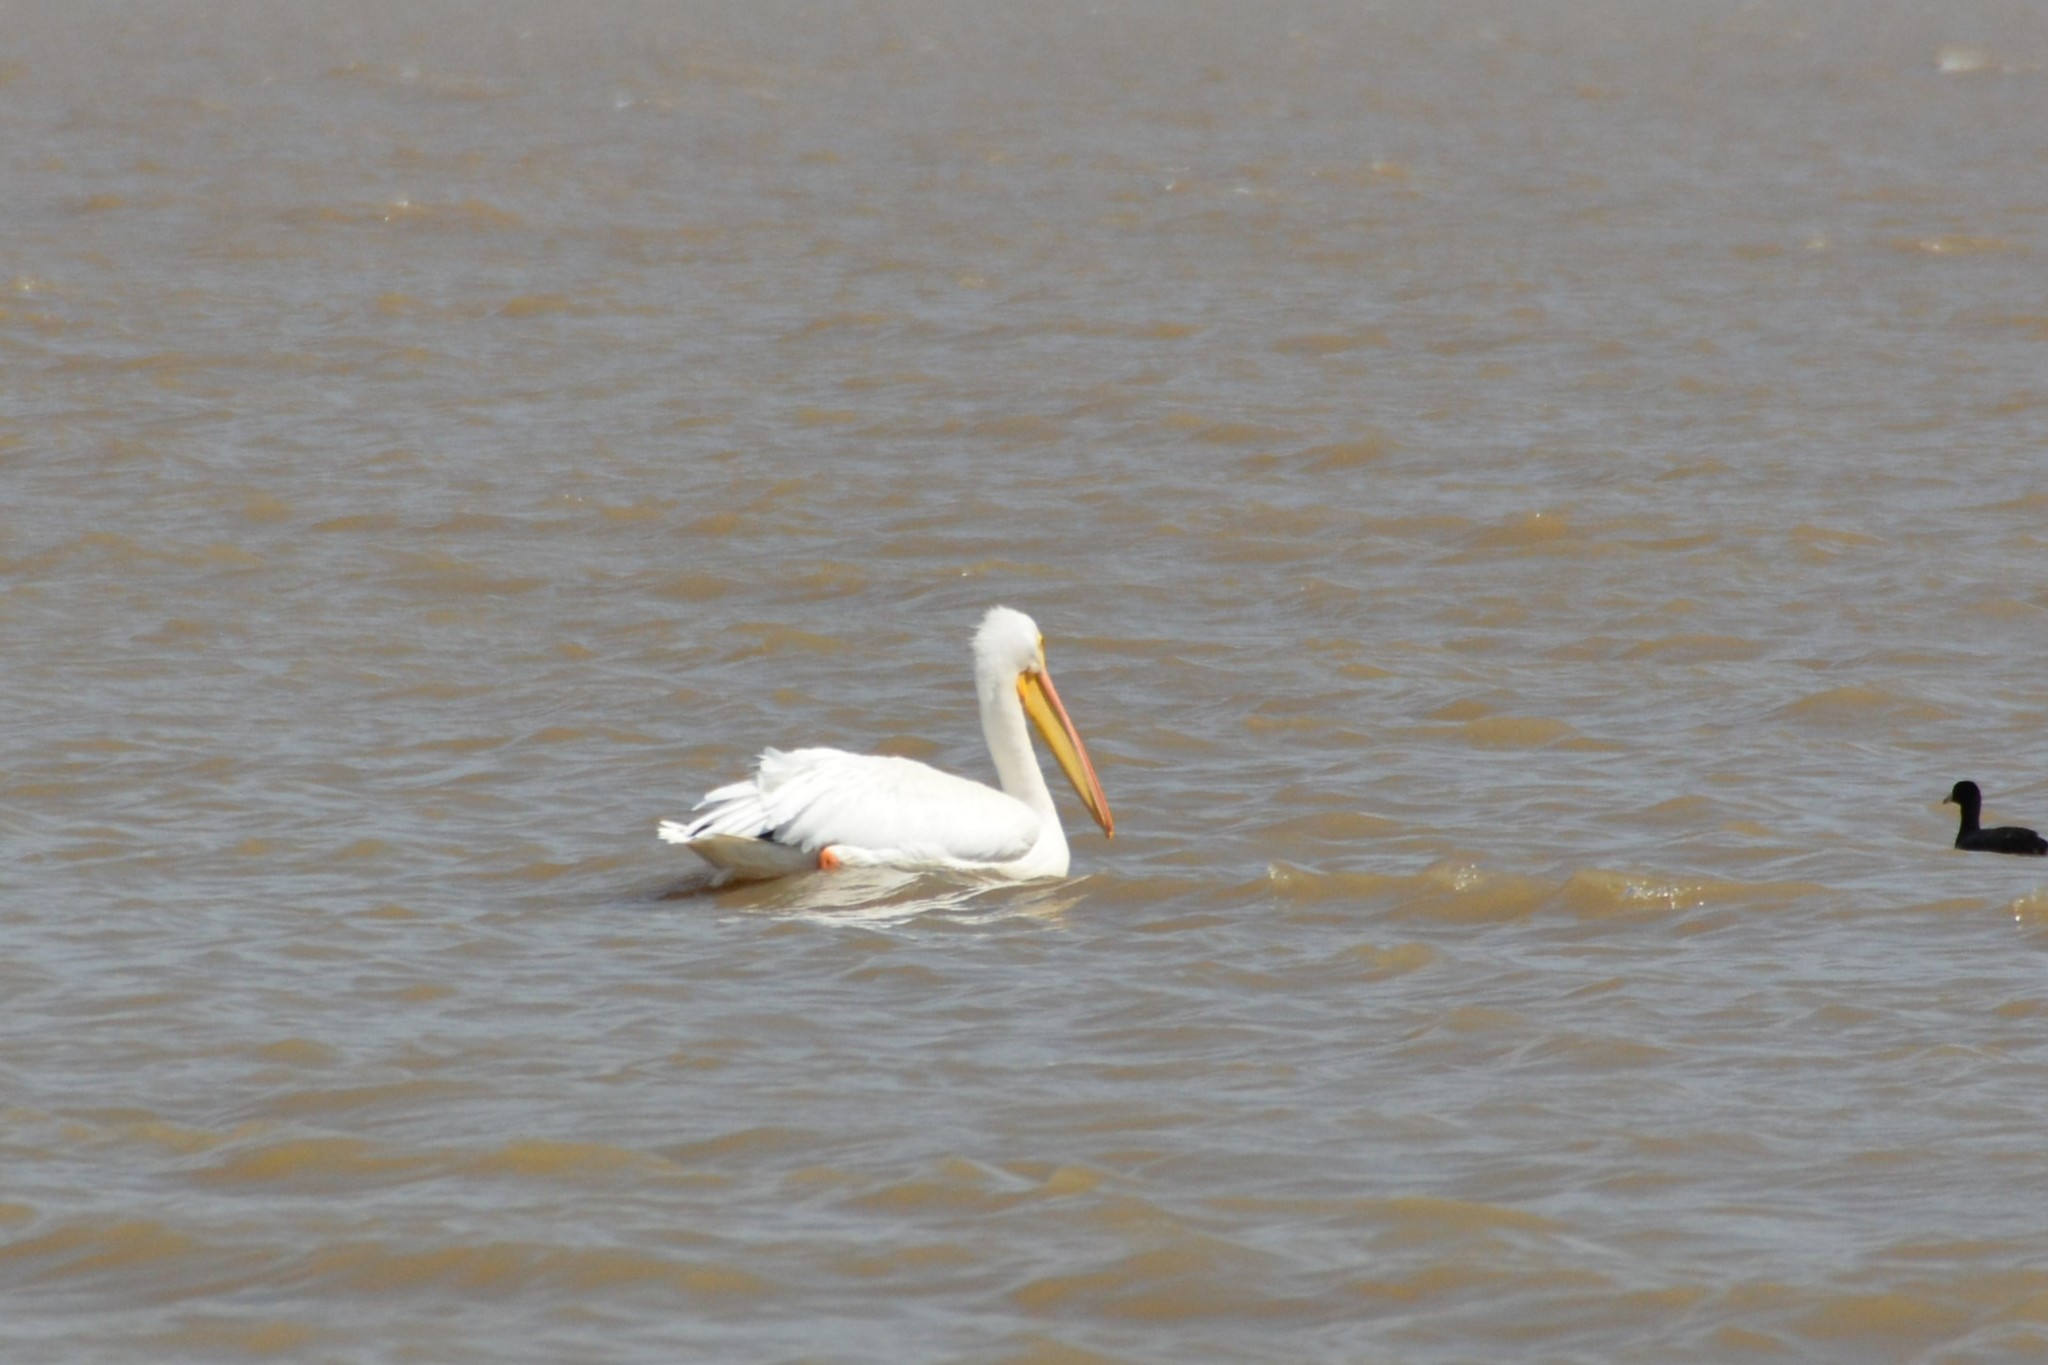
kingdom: Animalia
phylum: Chordata
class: Aves
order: Pelecaniformes
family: Pelecanidae
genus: Pelecanus
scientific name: Pelecanus erythrorhynchos
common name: American white pelican
